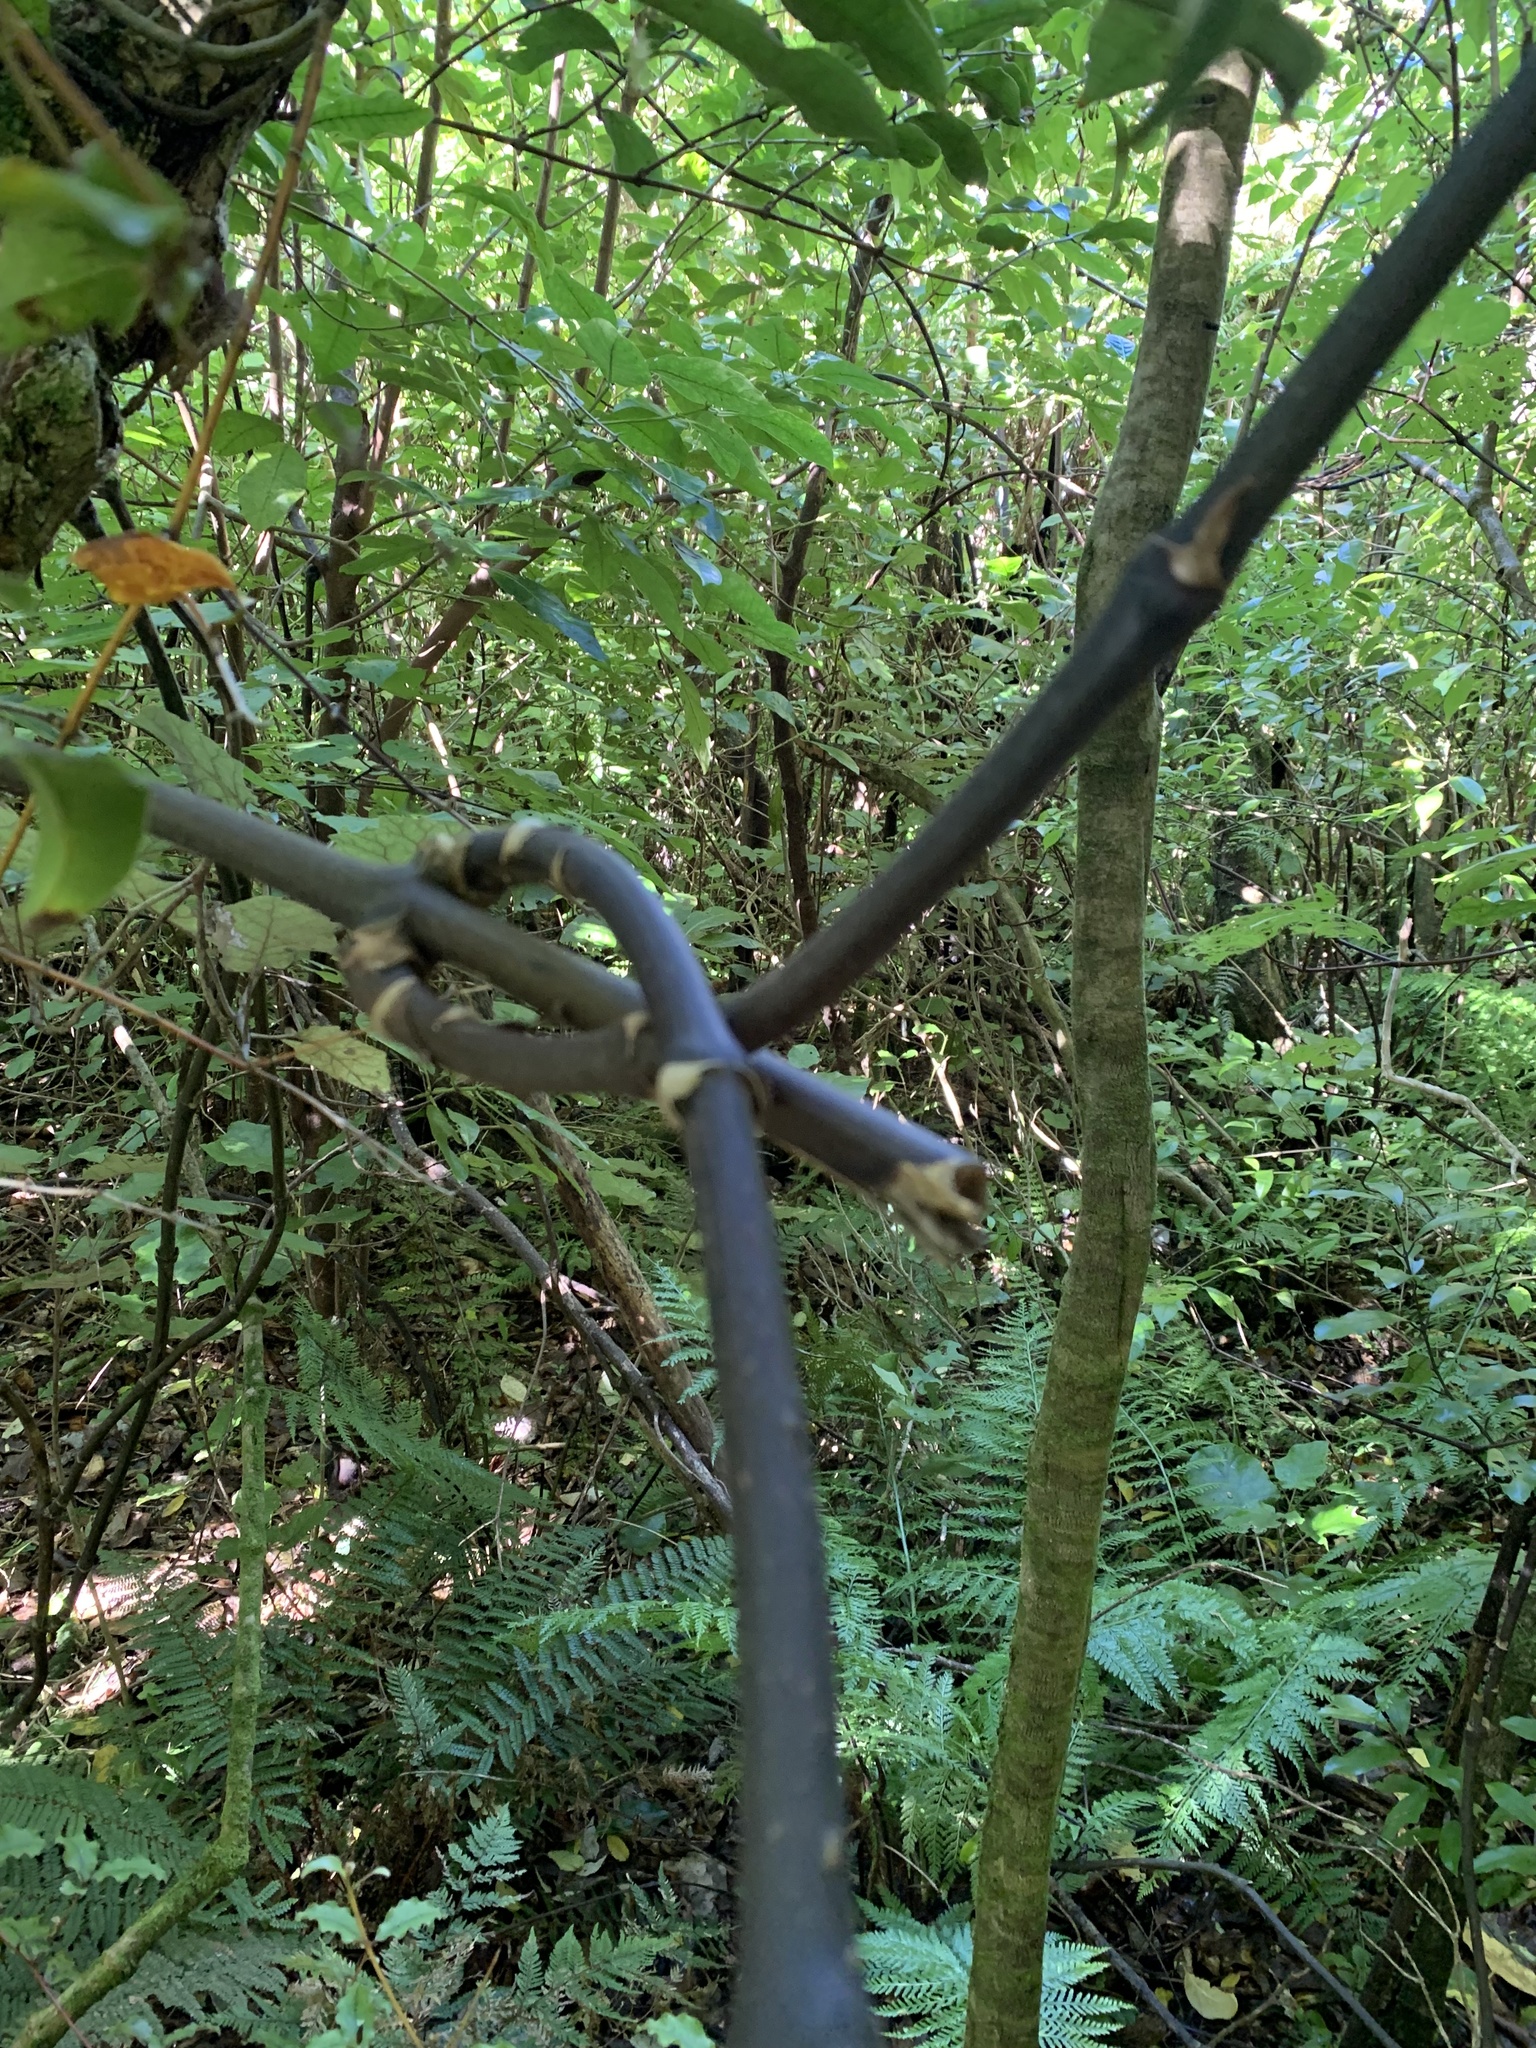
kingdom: Plantae
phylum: Tracheophyta
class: Liliopsida
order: Liliales
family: Ripogonaceae
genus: Ripogonum
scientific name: Ripogonum scandens
